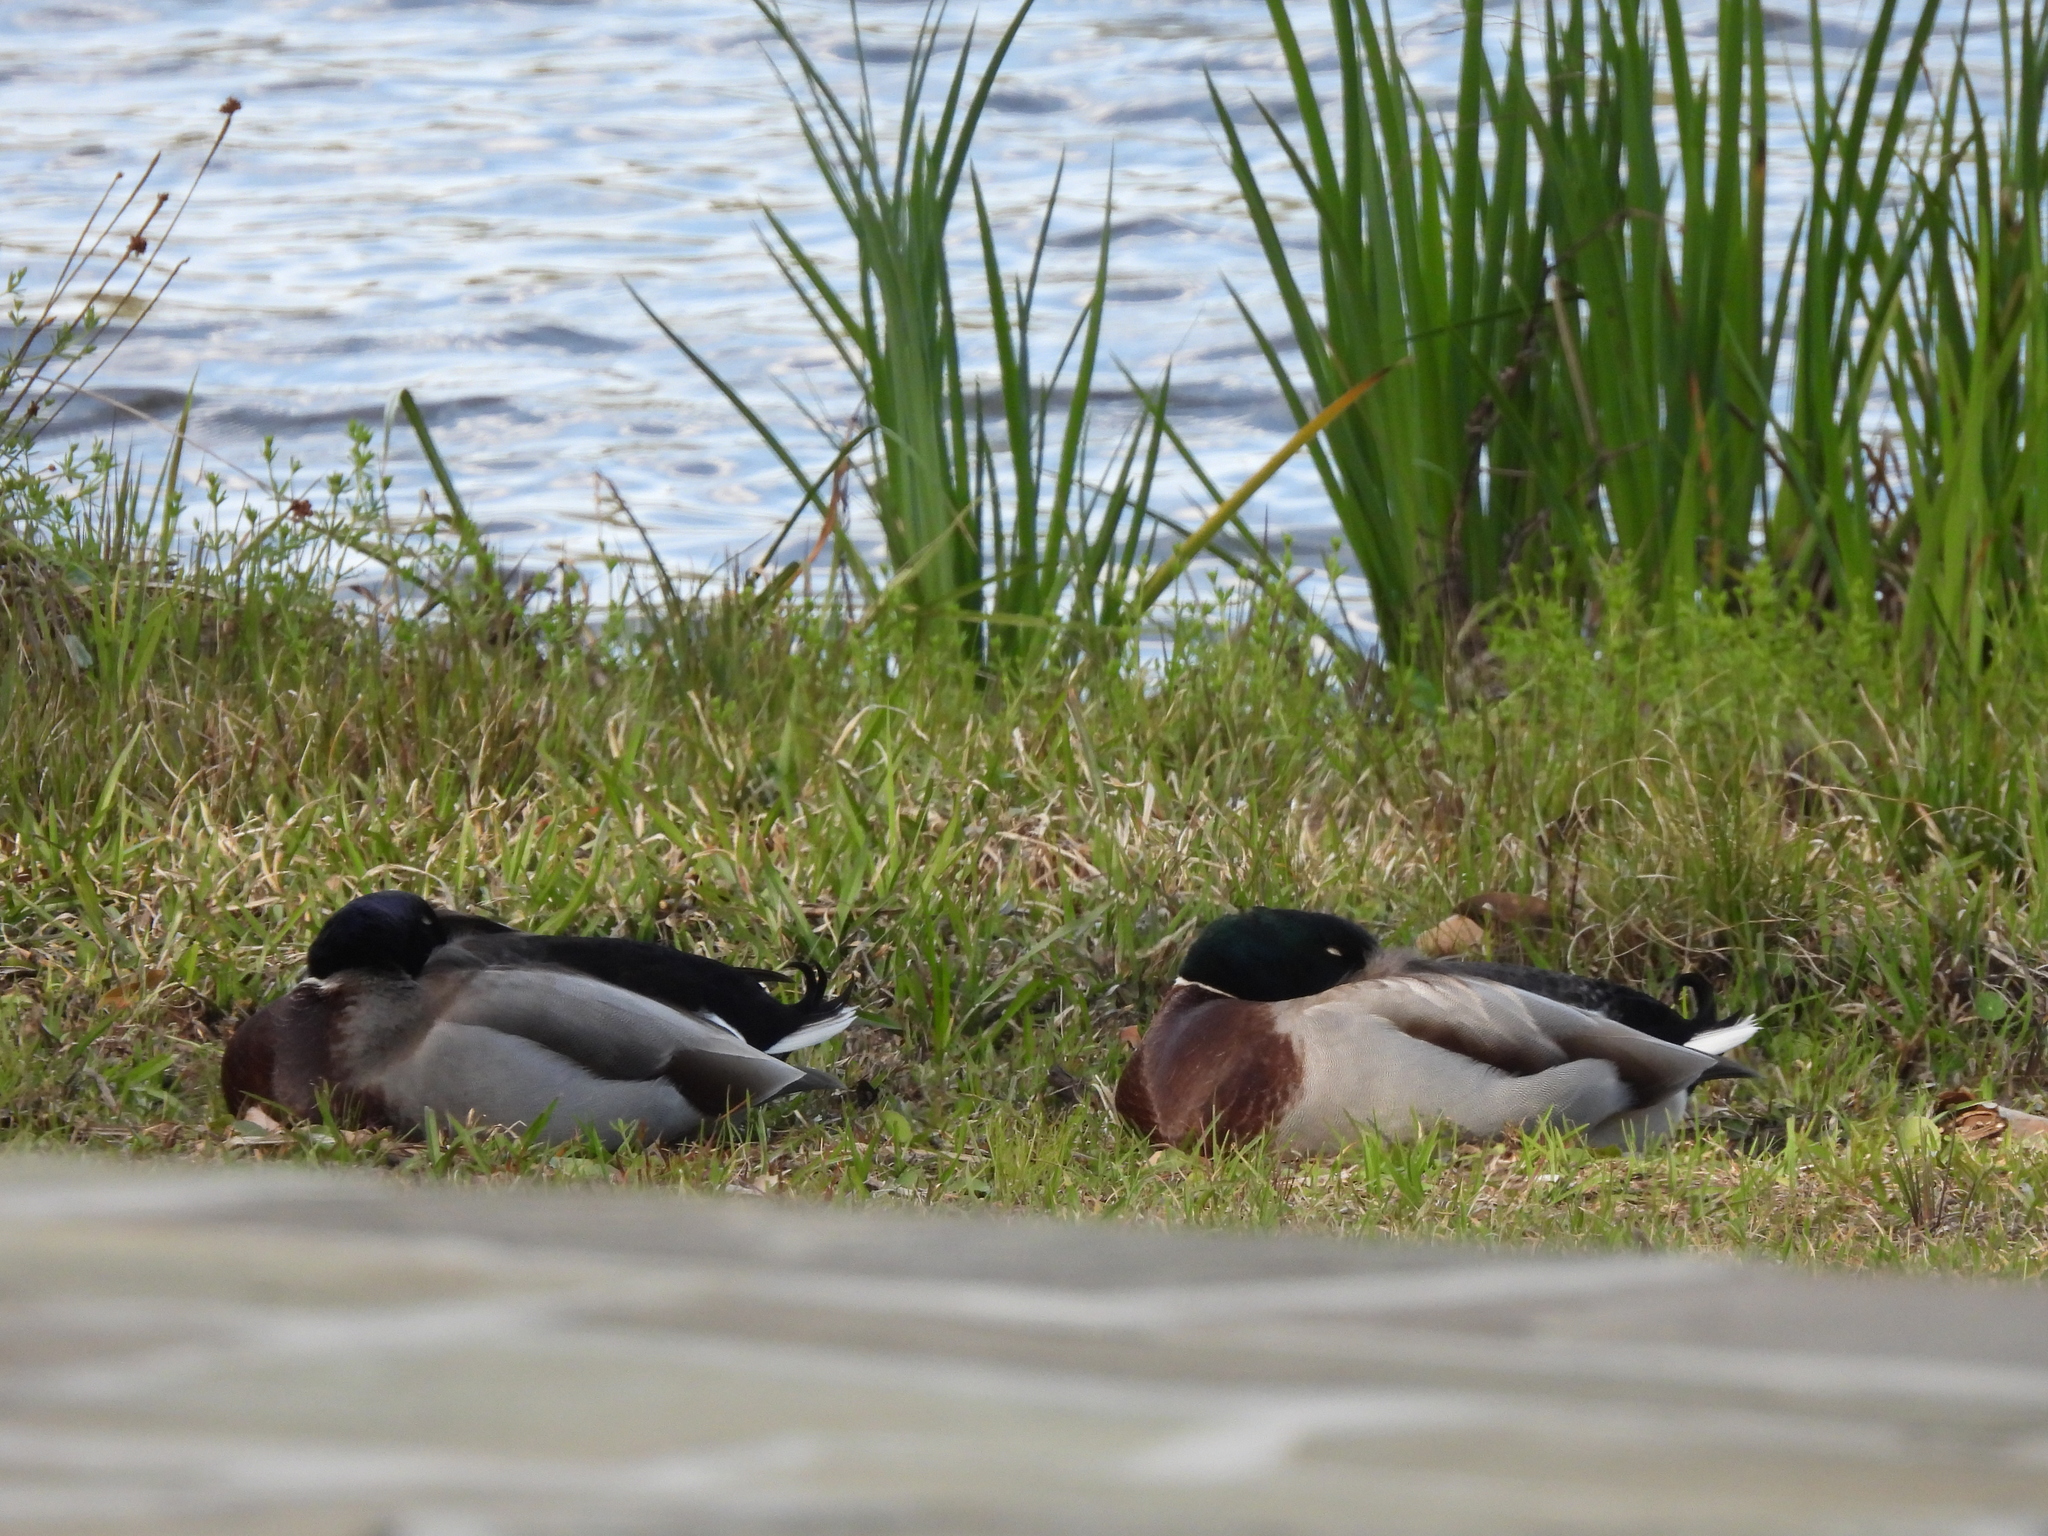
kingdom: Animalia
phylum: Chordata
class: Aves
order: Anseriformes
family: Anatidae
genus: Anas
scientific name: Anas platyrhynchos
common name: Mallard
